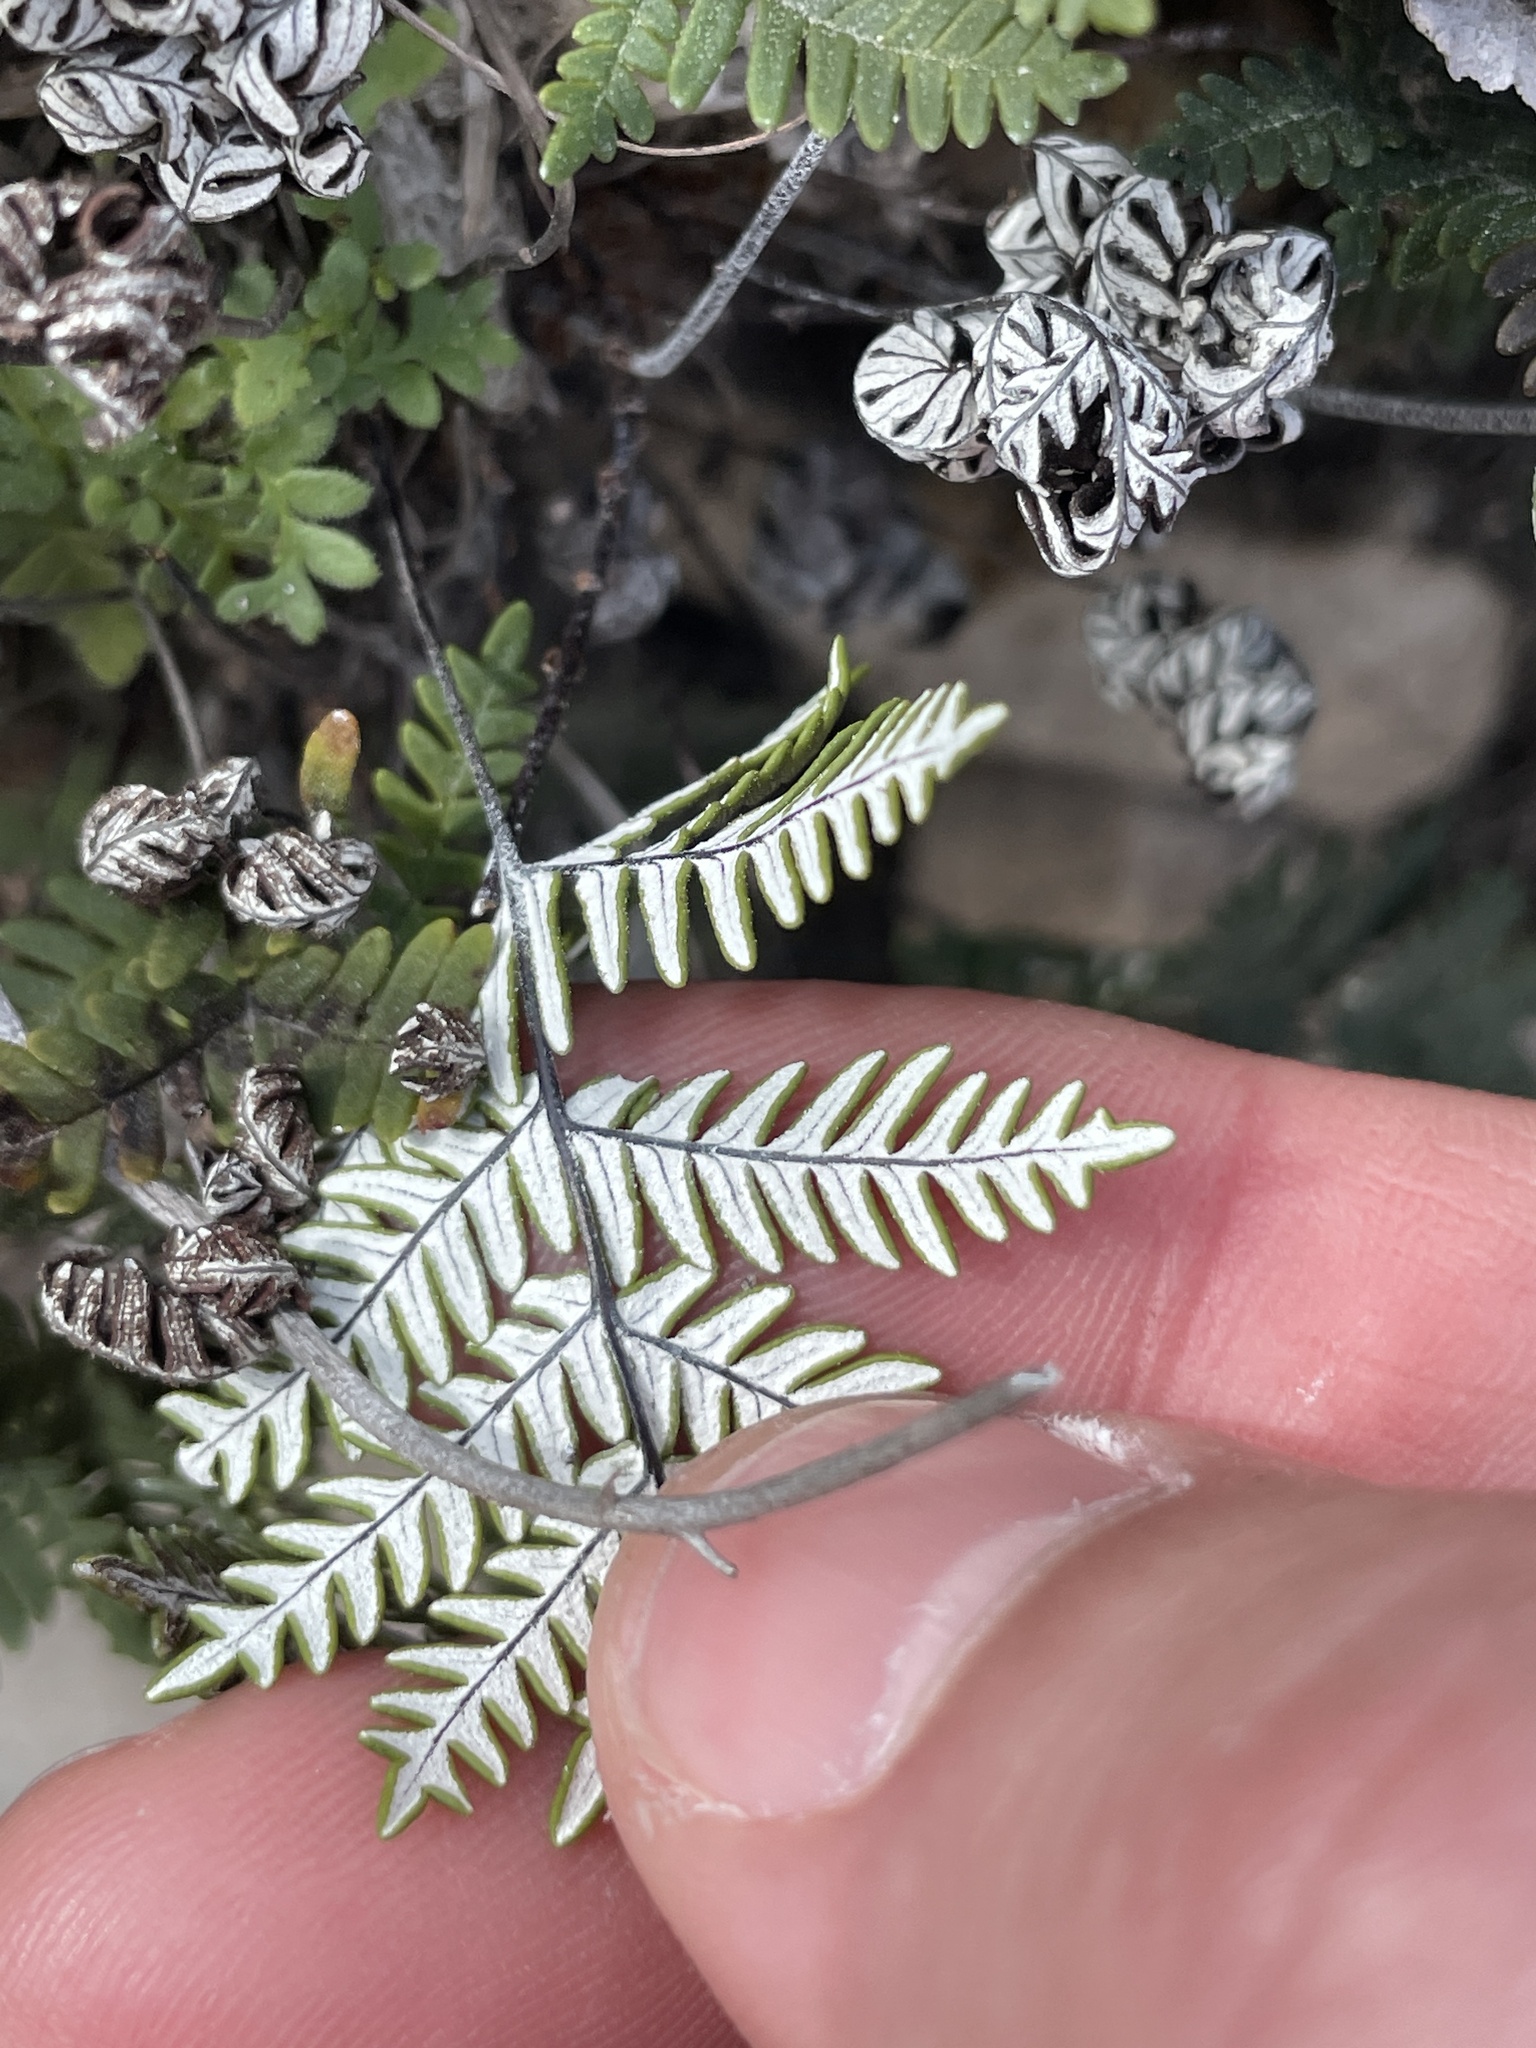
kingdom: Plantae
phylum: Tracheophyta
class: Polypodiopsida
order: Polypodiales
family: Pteridaceae
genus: Notholaena
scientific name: Notholaena candida
